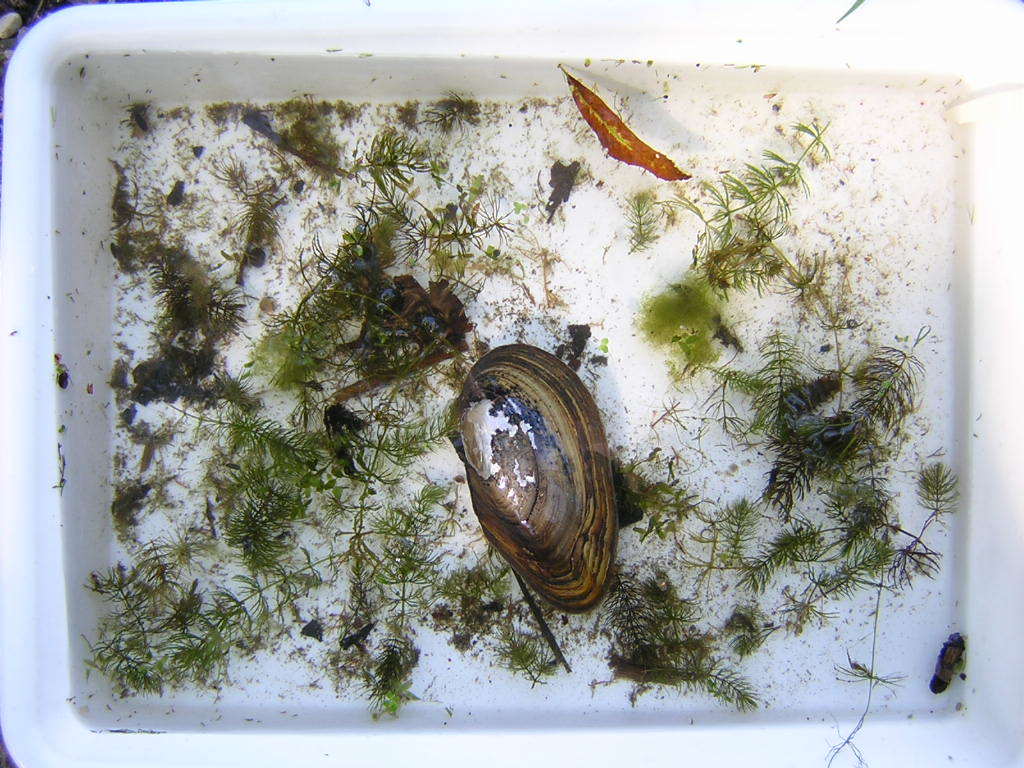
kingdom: Animalia
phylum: Mollusca
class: Bivalvia
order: Unionida
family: Unionidae
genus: Anodonta
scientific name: Anodonta anatina
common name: Duck mussel
